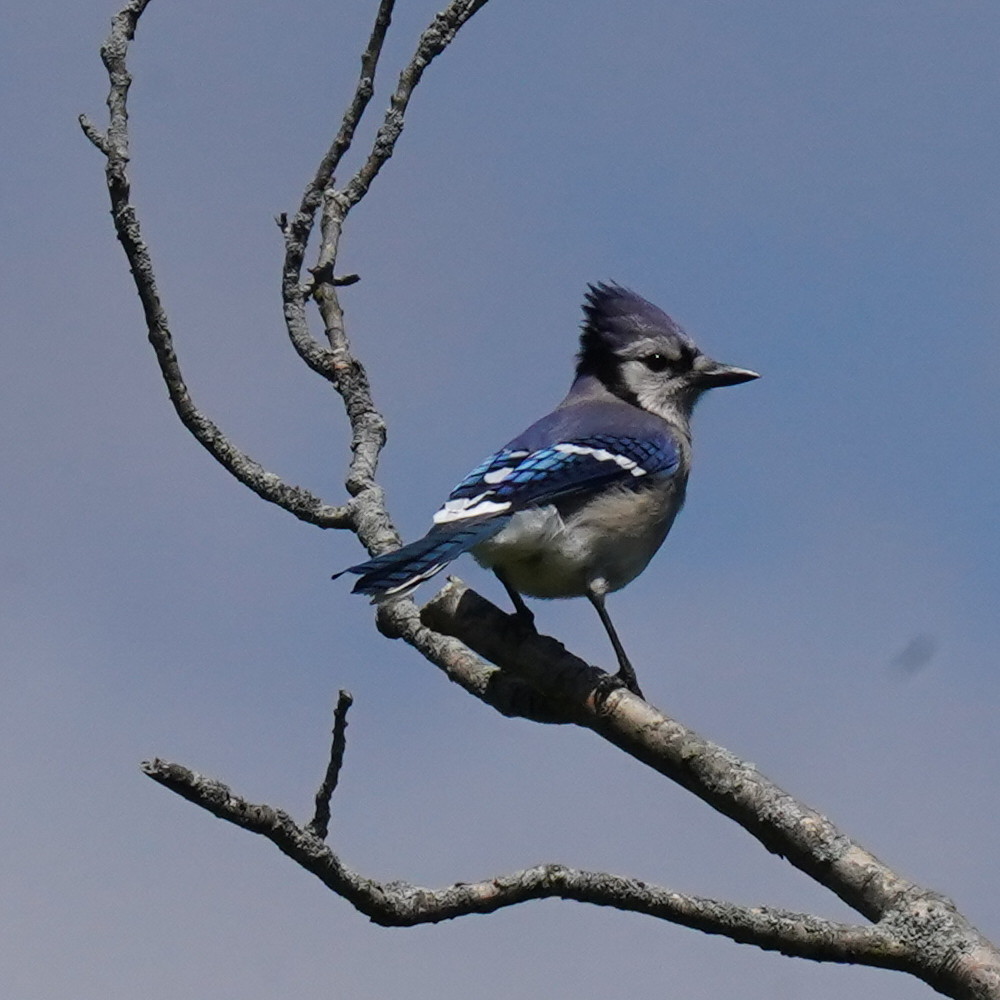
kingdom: Animalia
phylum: Chordata
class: Aves
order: Passeriformes
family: Corvidae
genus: Cyanocitta
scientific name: Cyanocitta cristata
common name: Blue jay
